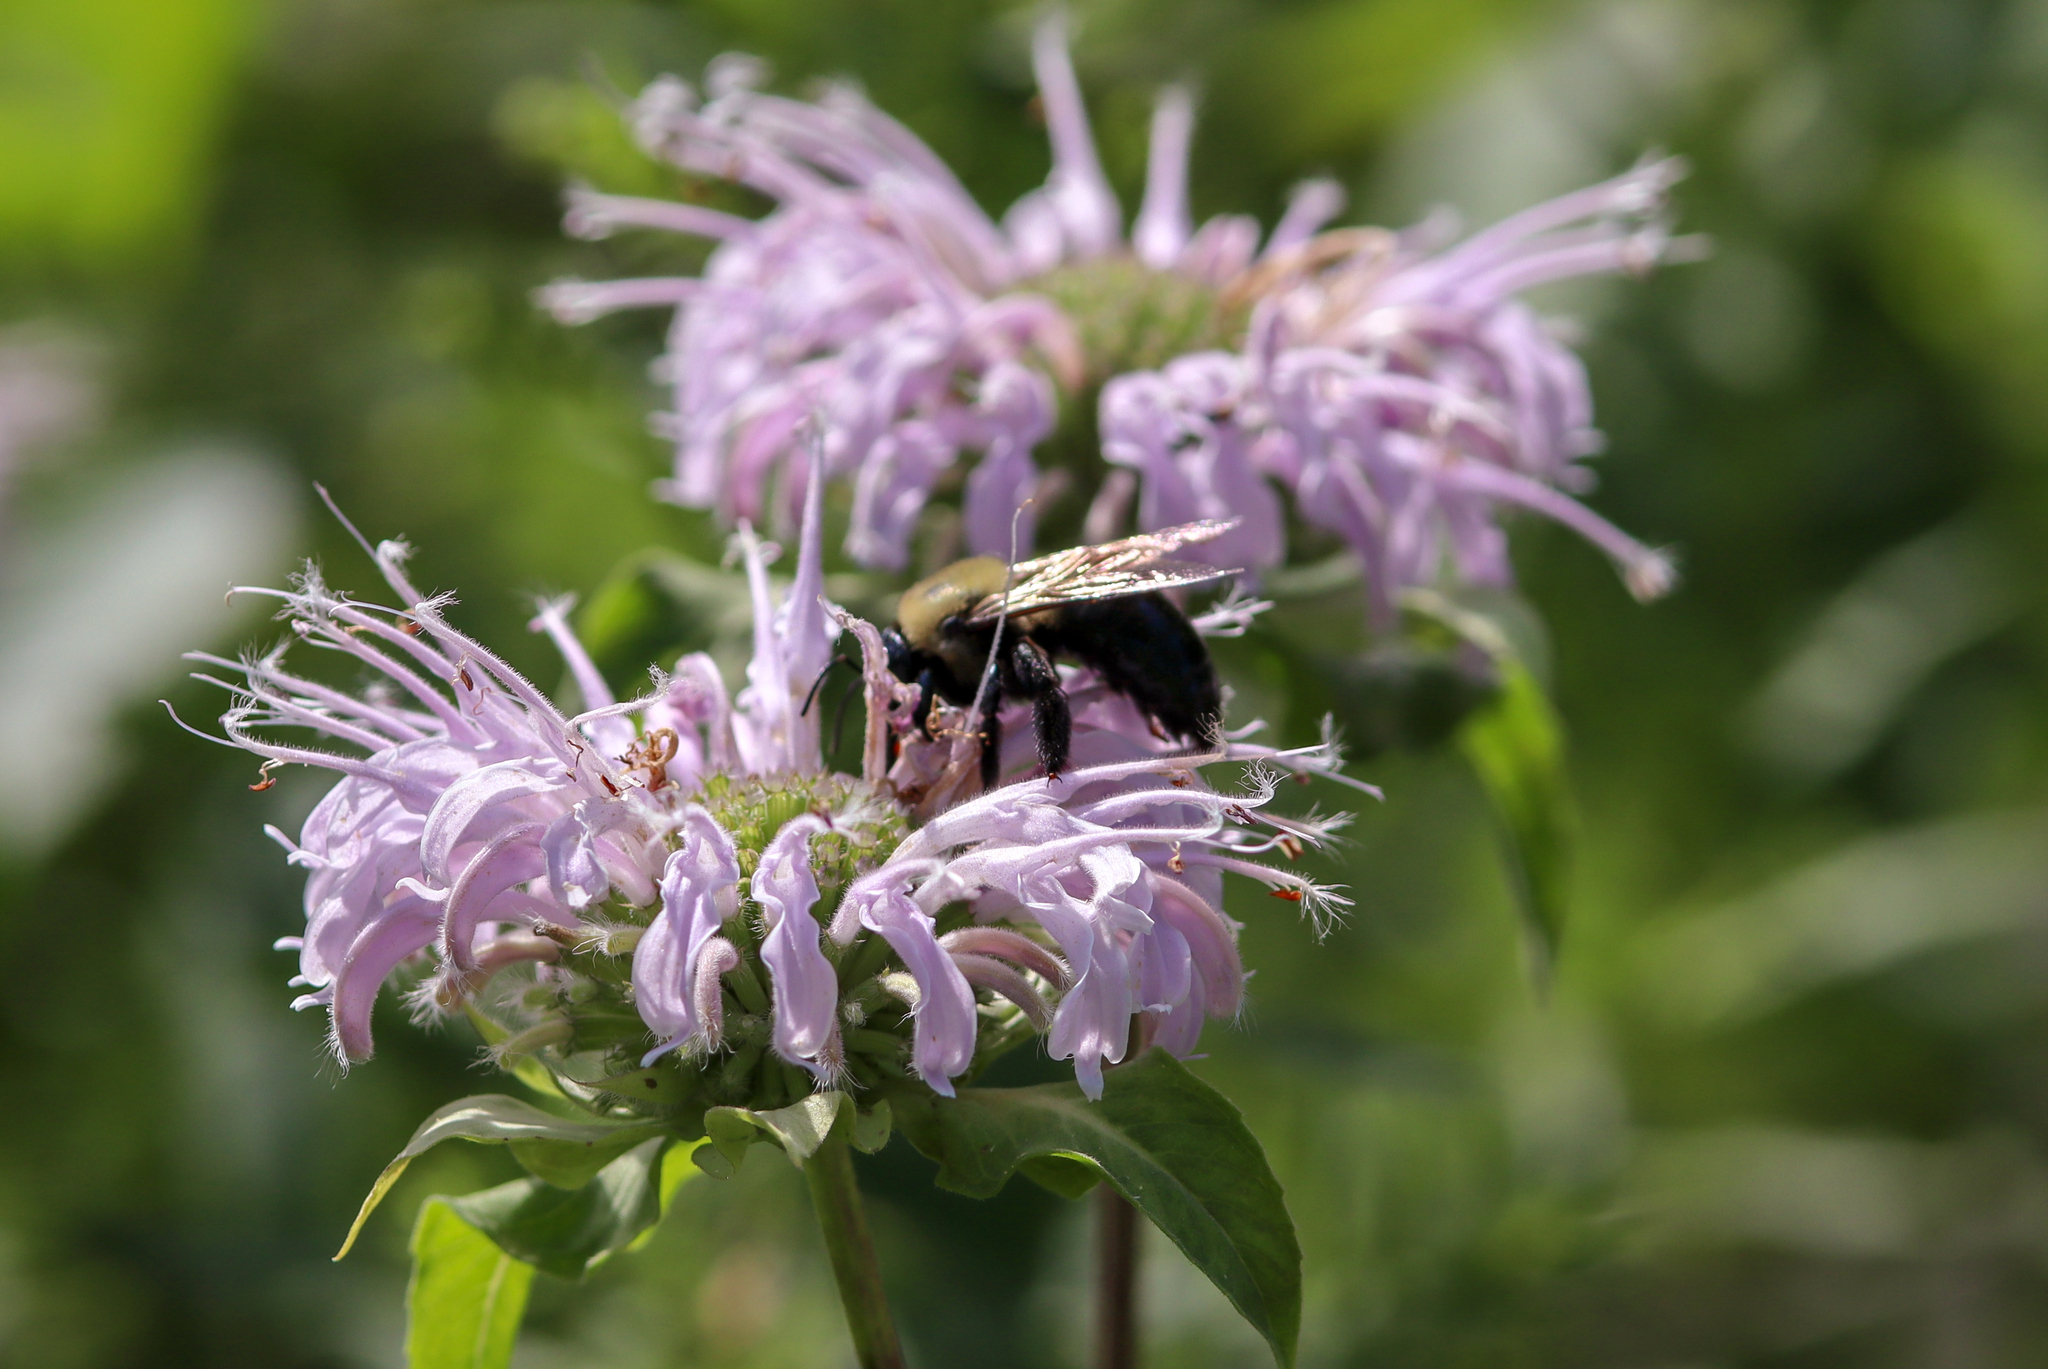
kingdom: Animalia
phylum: Arthropoda
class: Insecta
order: Hymenoptera
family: Apidae
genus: Xylocopa
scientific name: Xylocopa virginica
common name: Carpenter bee
